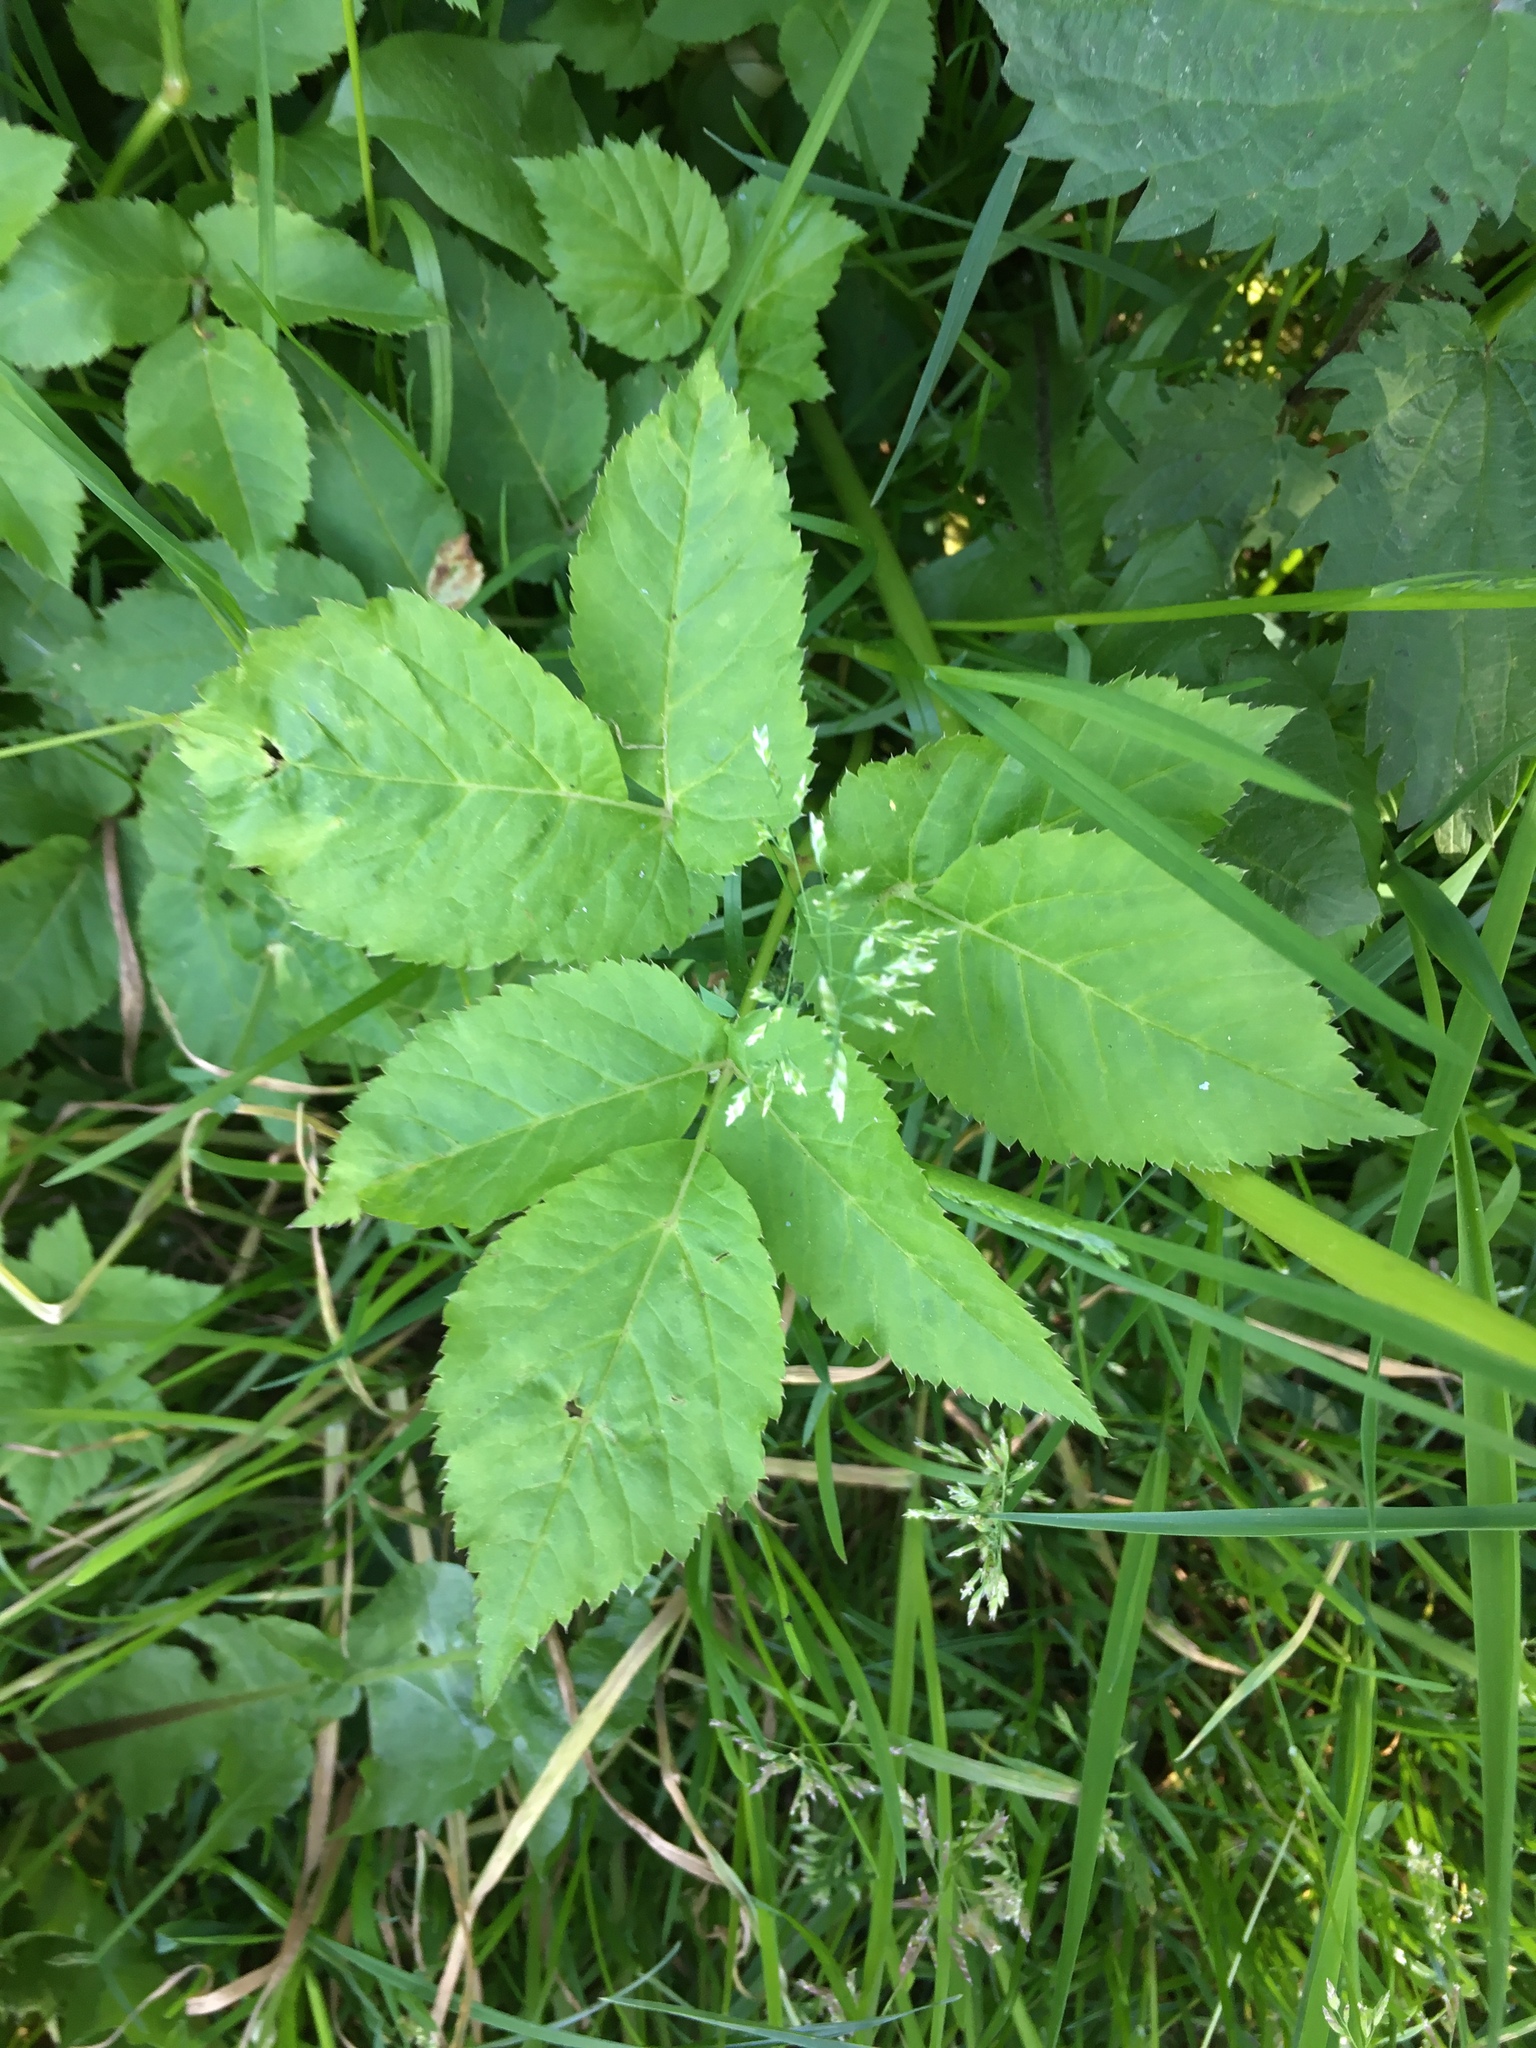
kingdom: Plantae
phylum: Tracheophyta
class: Magnoliopsida
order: Apiales
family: Apiaceae
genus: Aegopodium
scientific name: Aegopodium podagraria
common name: Ground-elder
